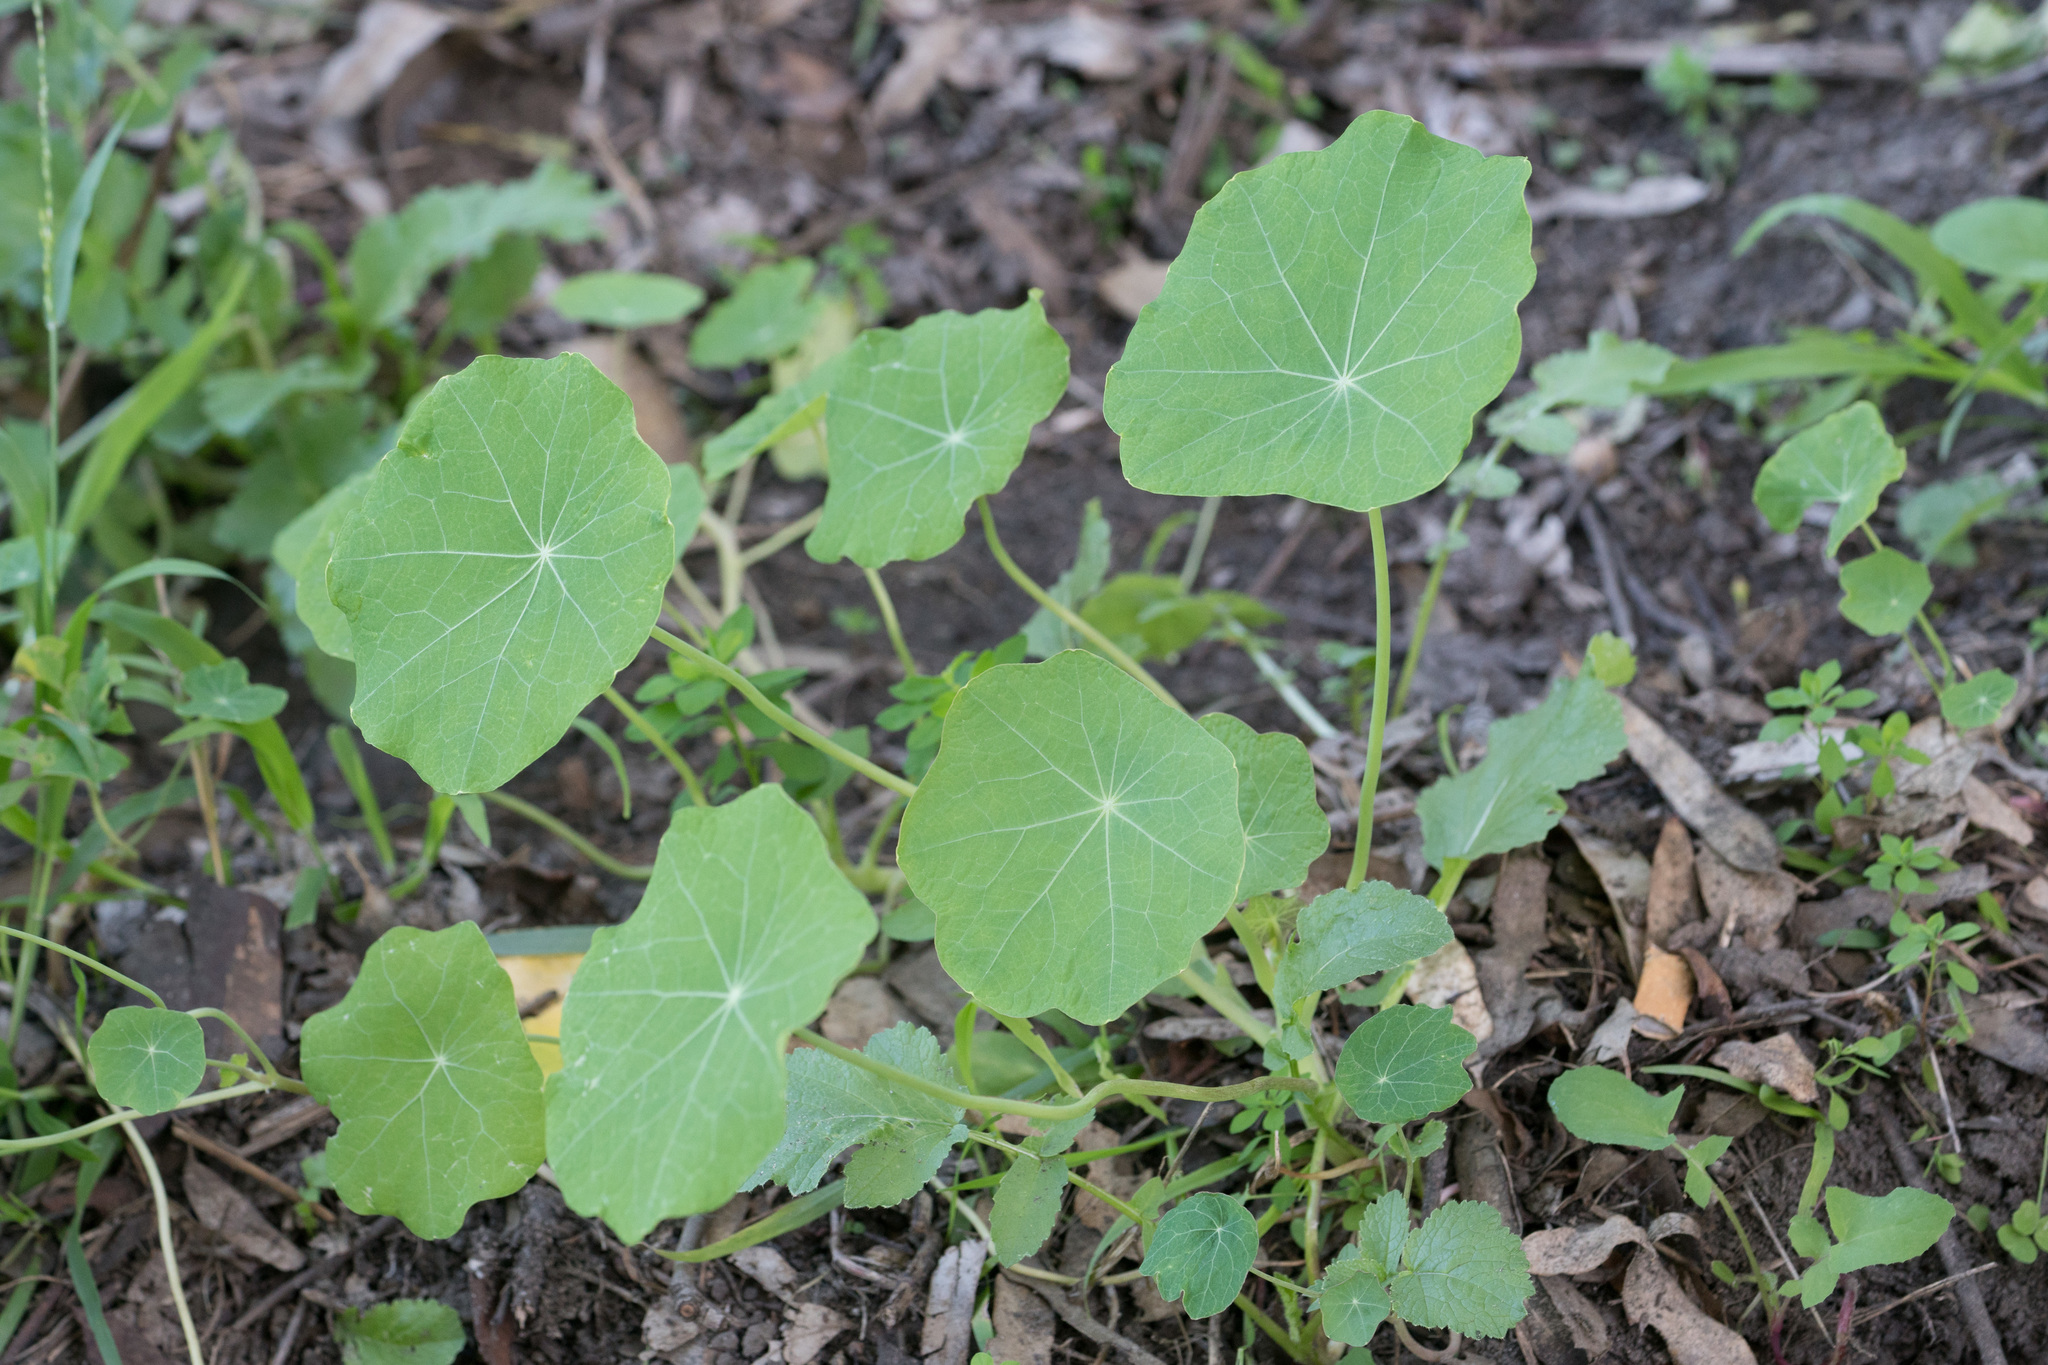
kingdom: Plantae
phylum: Tracheophyta
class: Magnoliopsida
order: Brassicales
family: Tropaeolaceae
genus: Tropaeolum
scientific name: Tropaeolum majus
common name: Nasturtium
